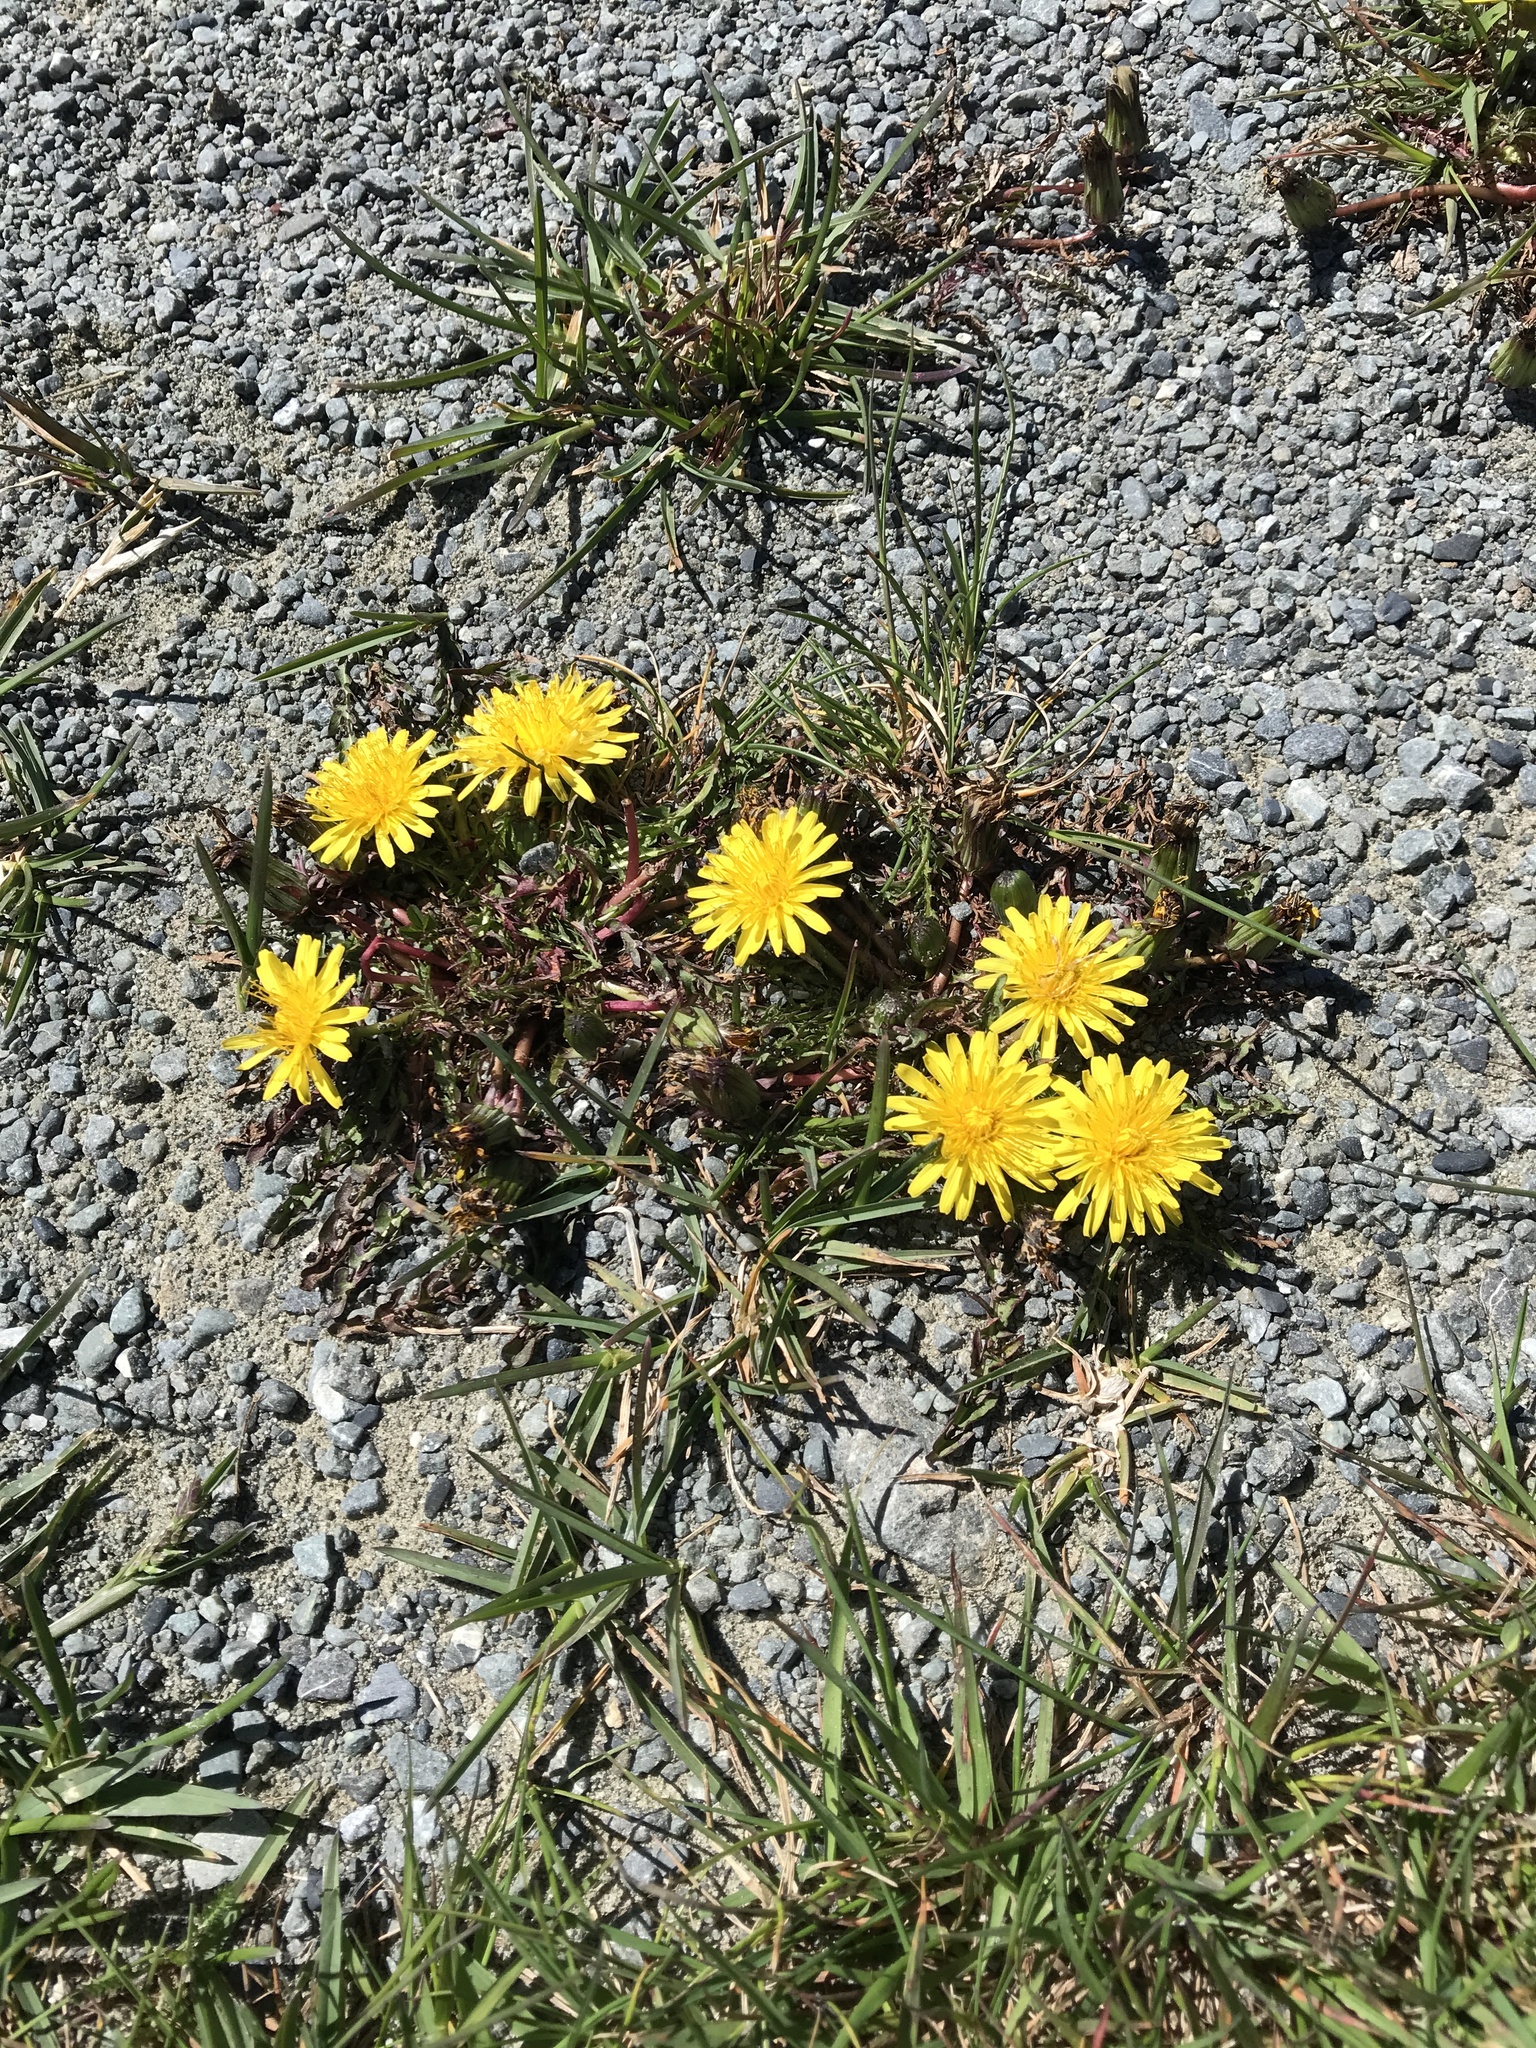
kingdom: Plantae
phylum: Tracheophyta
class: Magnoliopsida
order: Asterales
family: Asteraceae
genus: Taraxacum
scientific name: Taraxacum officinale
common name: Common dandelion
